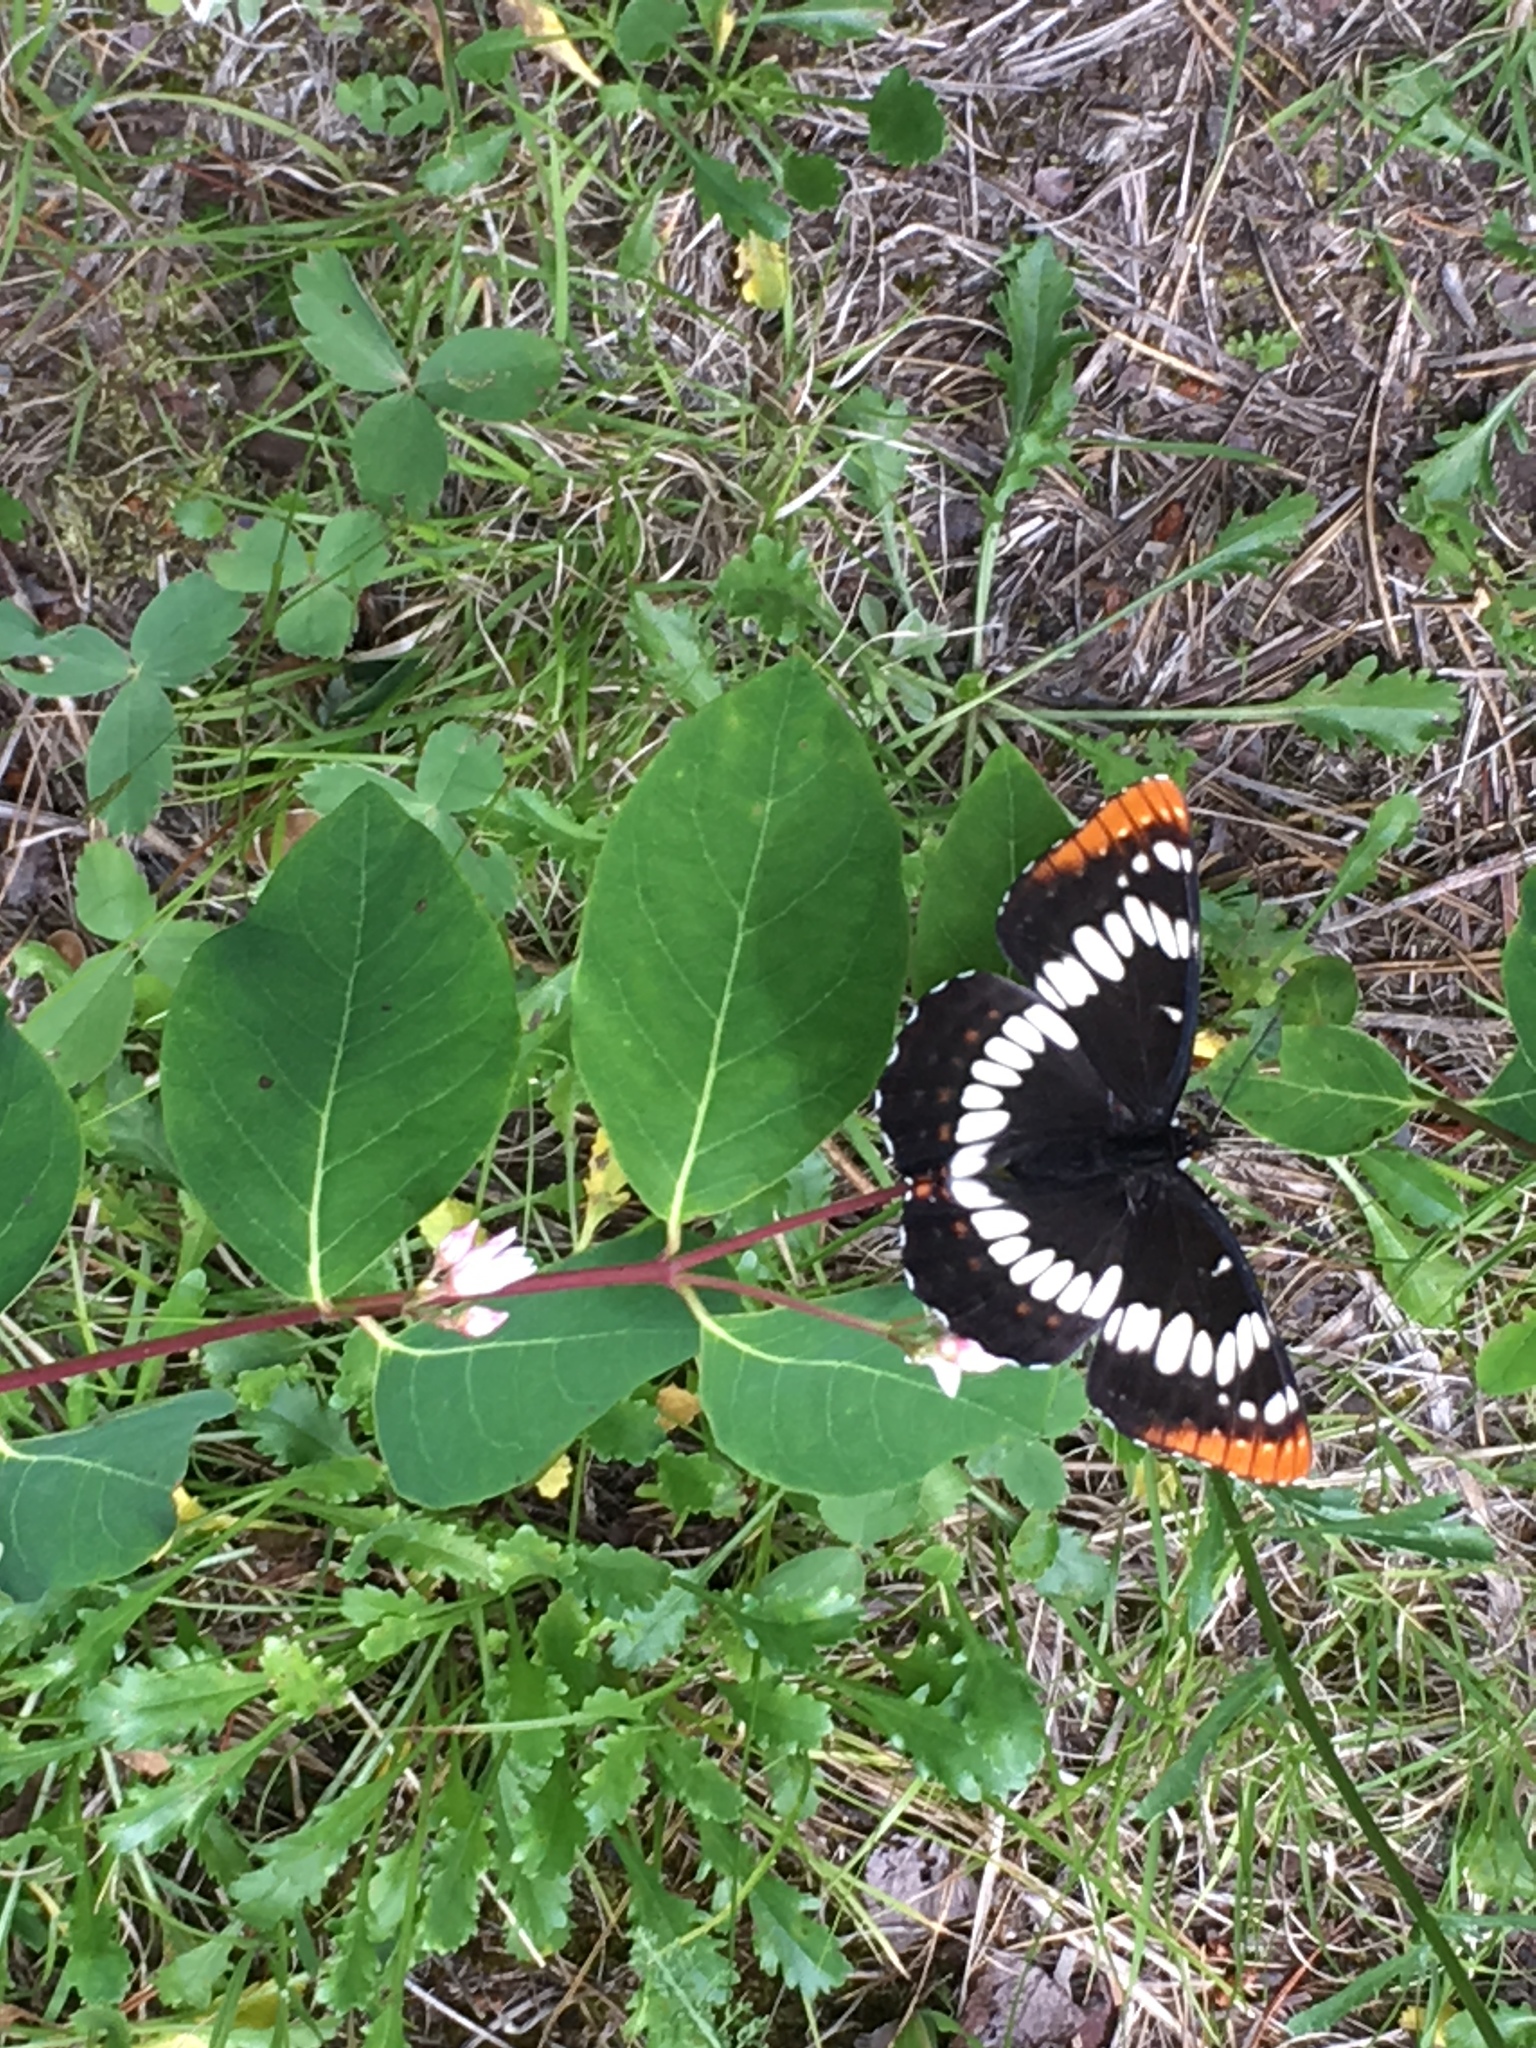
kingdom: Animalia
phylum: Arthropoda
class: Insecta
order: Lepidoptera
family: Nymphalidae
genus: Limenitis
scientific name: Limenitis lorquini
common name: Lorquin's admiral
